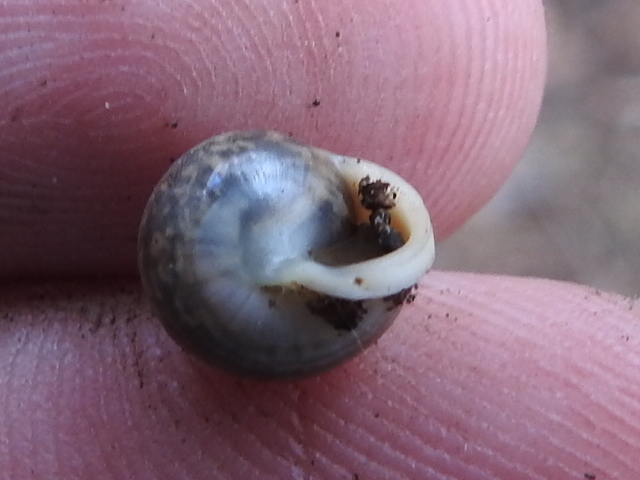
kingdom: Animalia
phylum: Mollusca
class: Gastropoda
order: Cycloneritida
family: Helicinidae
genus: Helicina
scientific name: Helicina orbiculata
